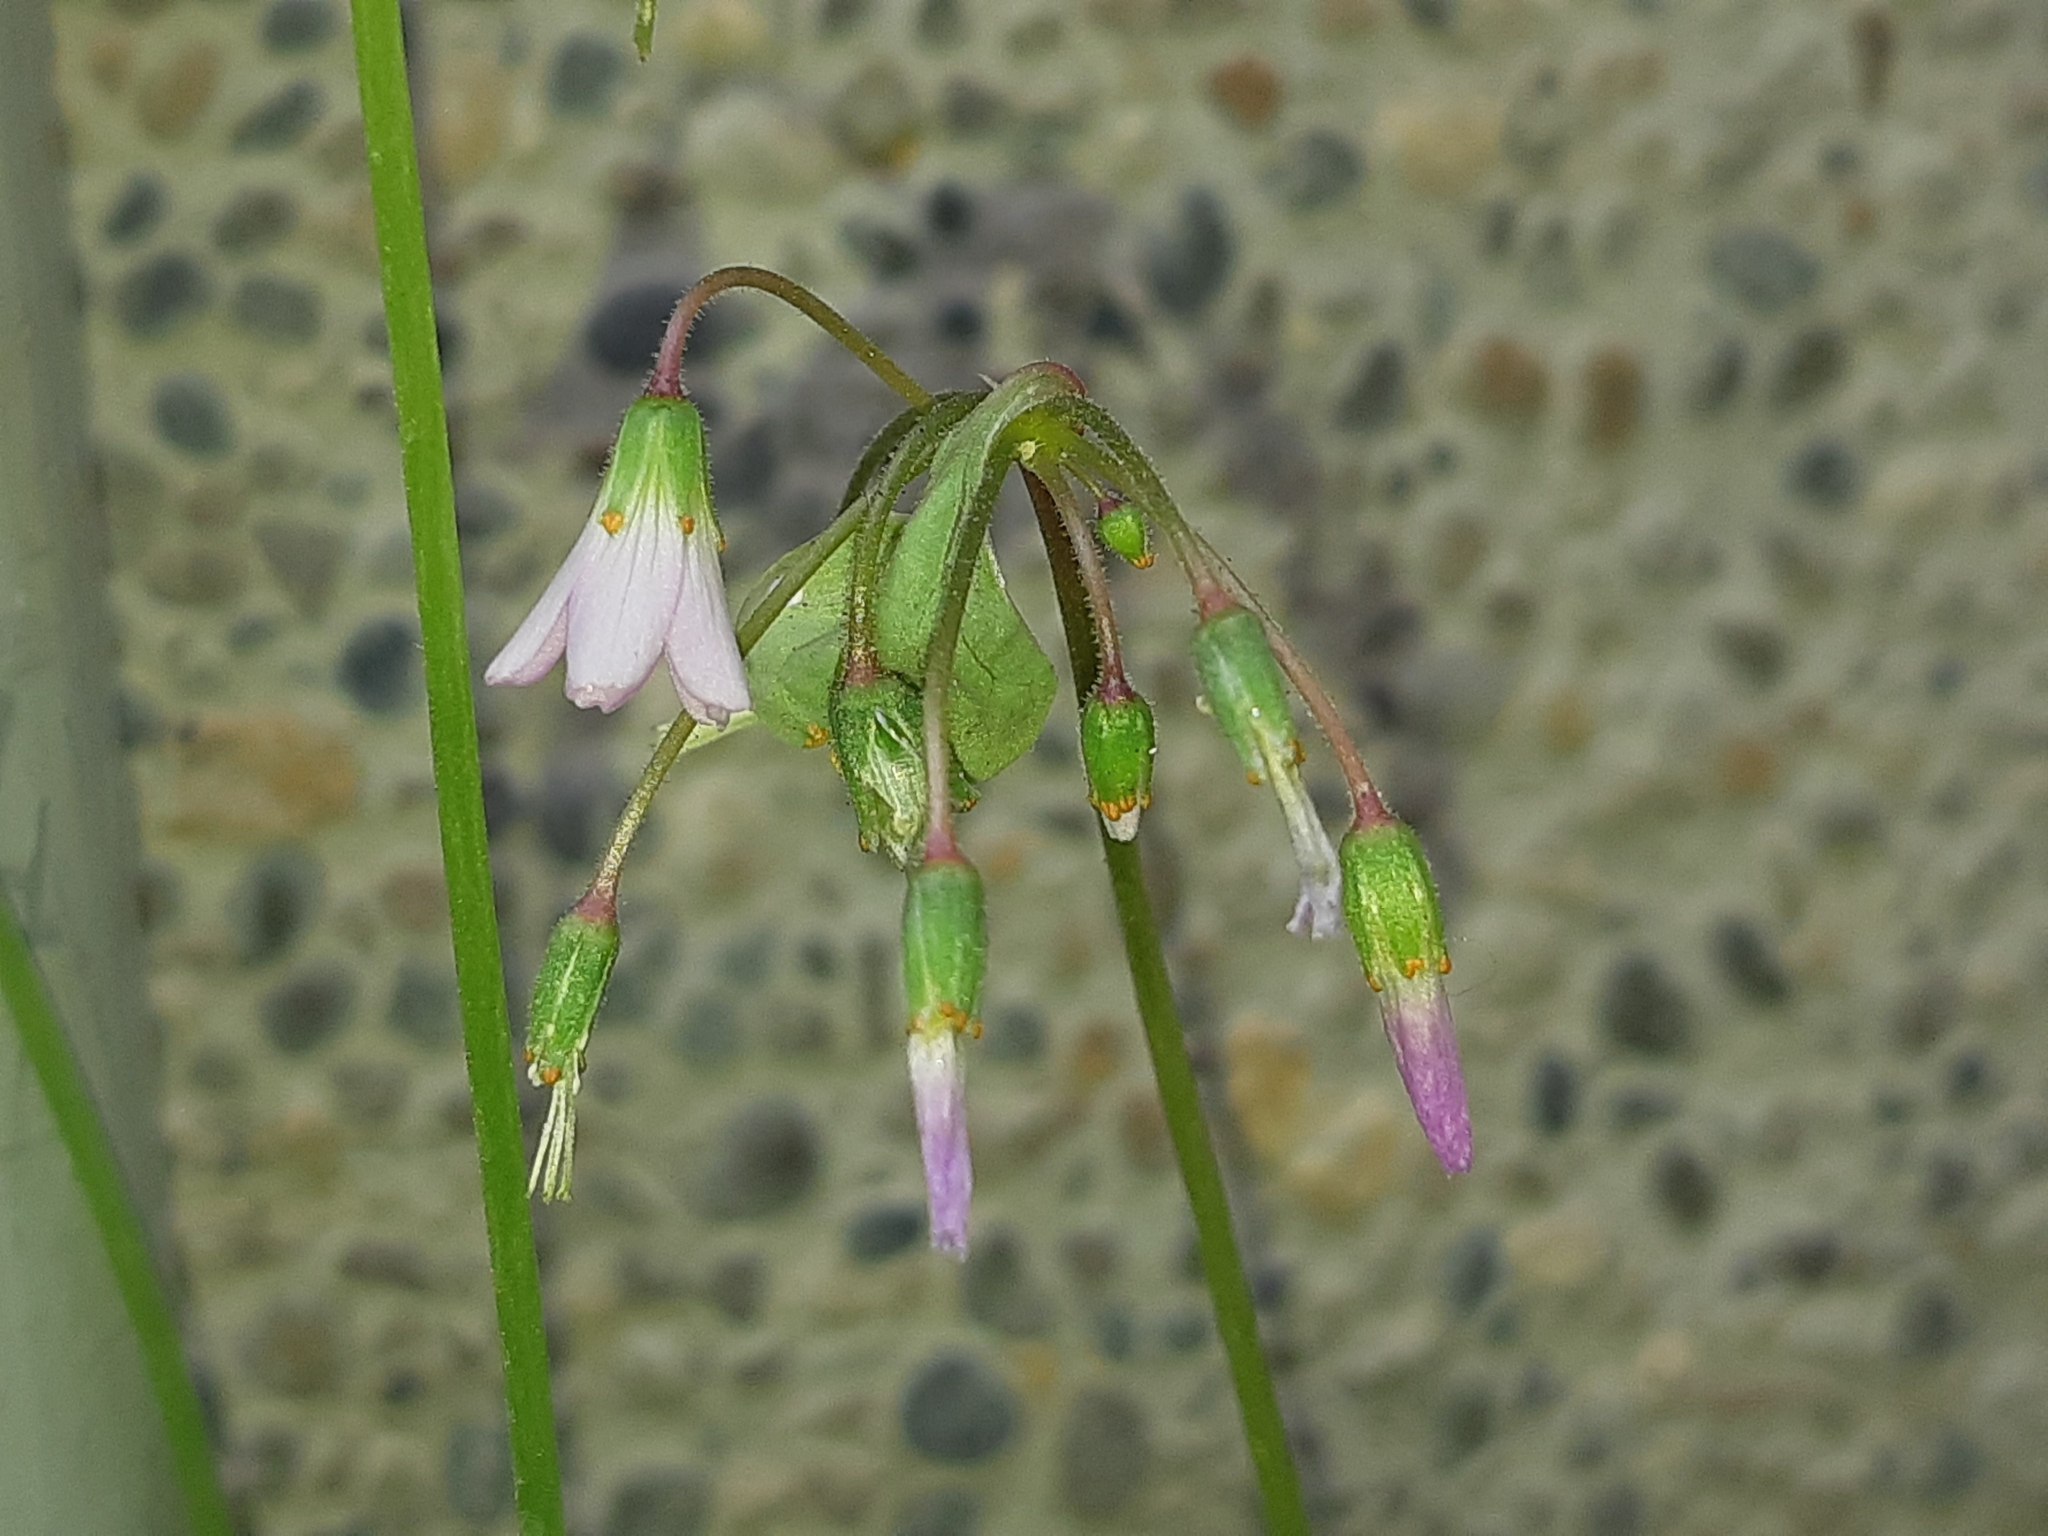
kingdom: Plantae
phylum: Tracheophyta
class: Magnoliopsida
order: Oxalidales
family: Oxalidaceae
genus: Oxalis
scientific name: Oxalis latifolia
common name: Garden pink-sorrel
